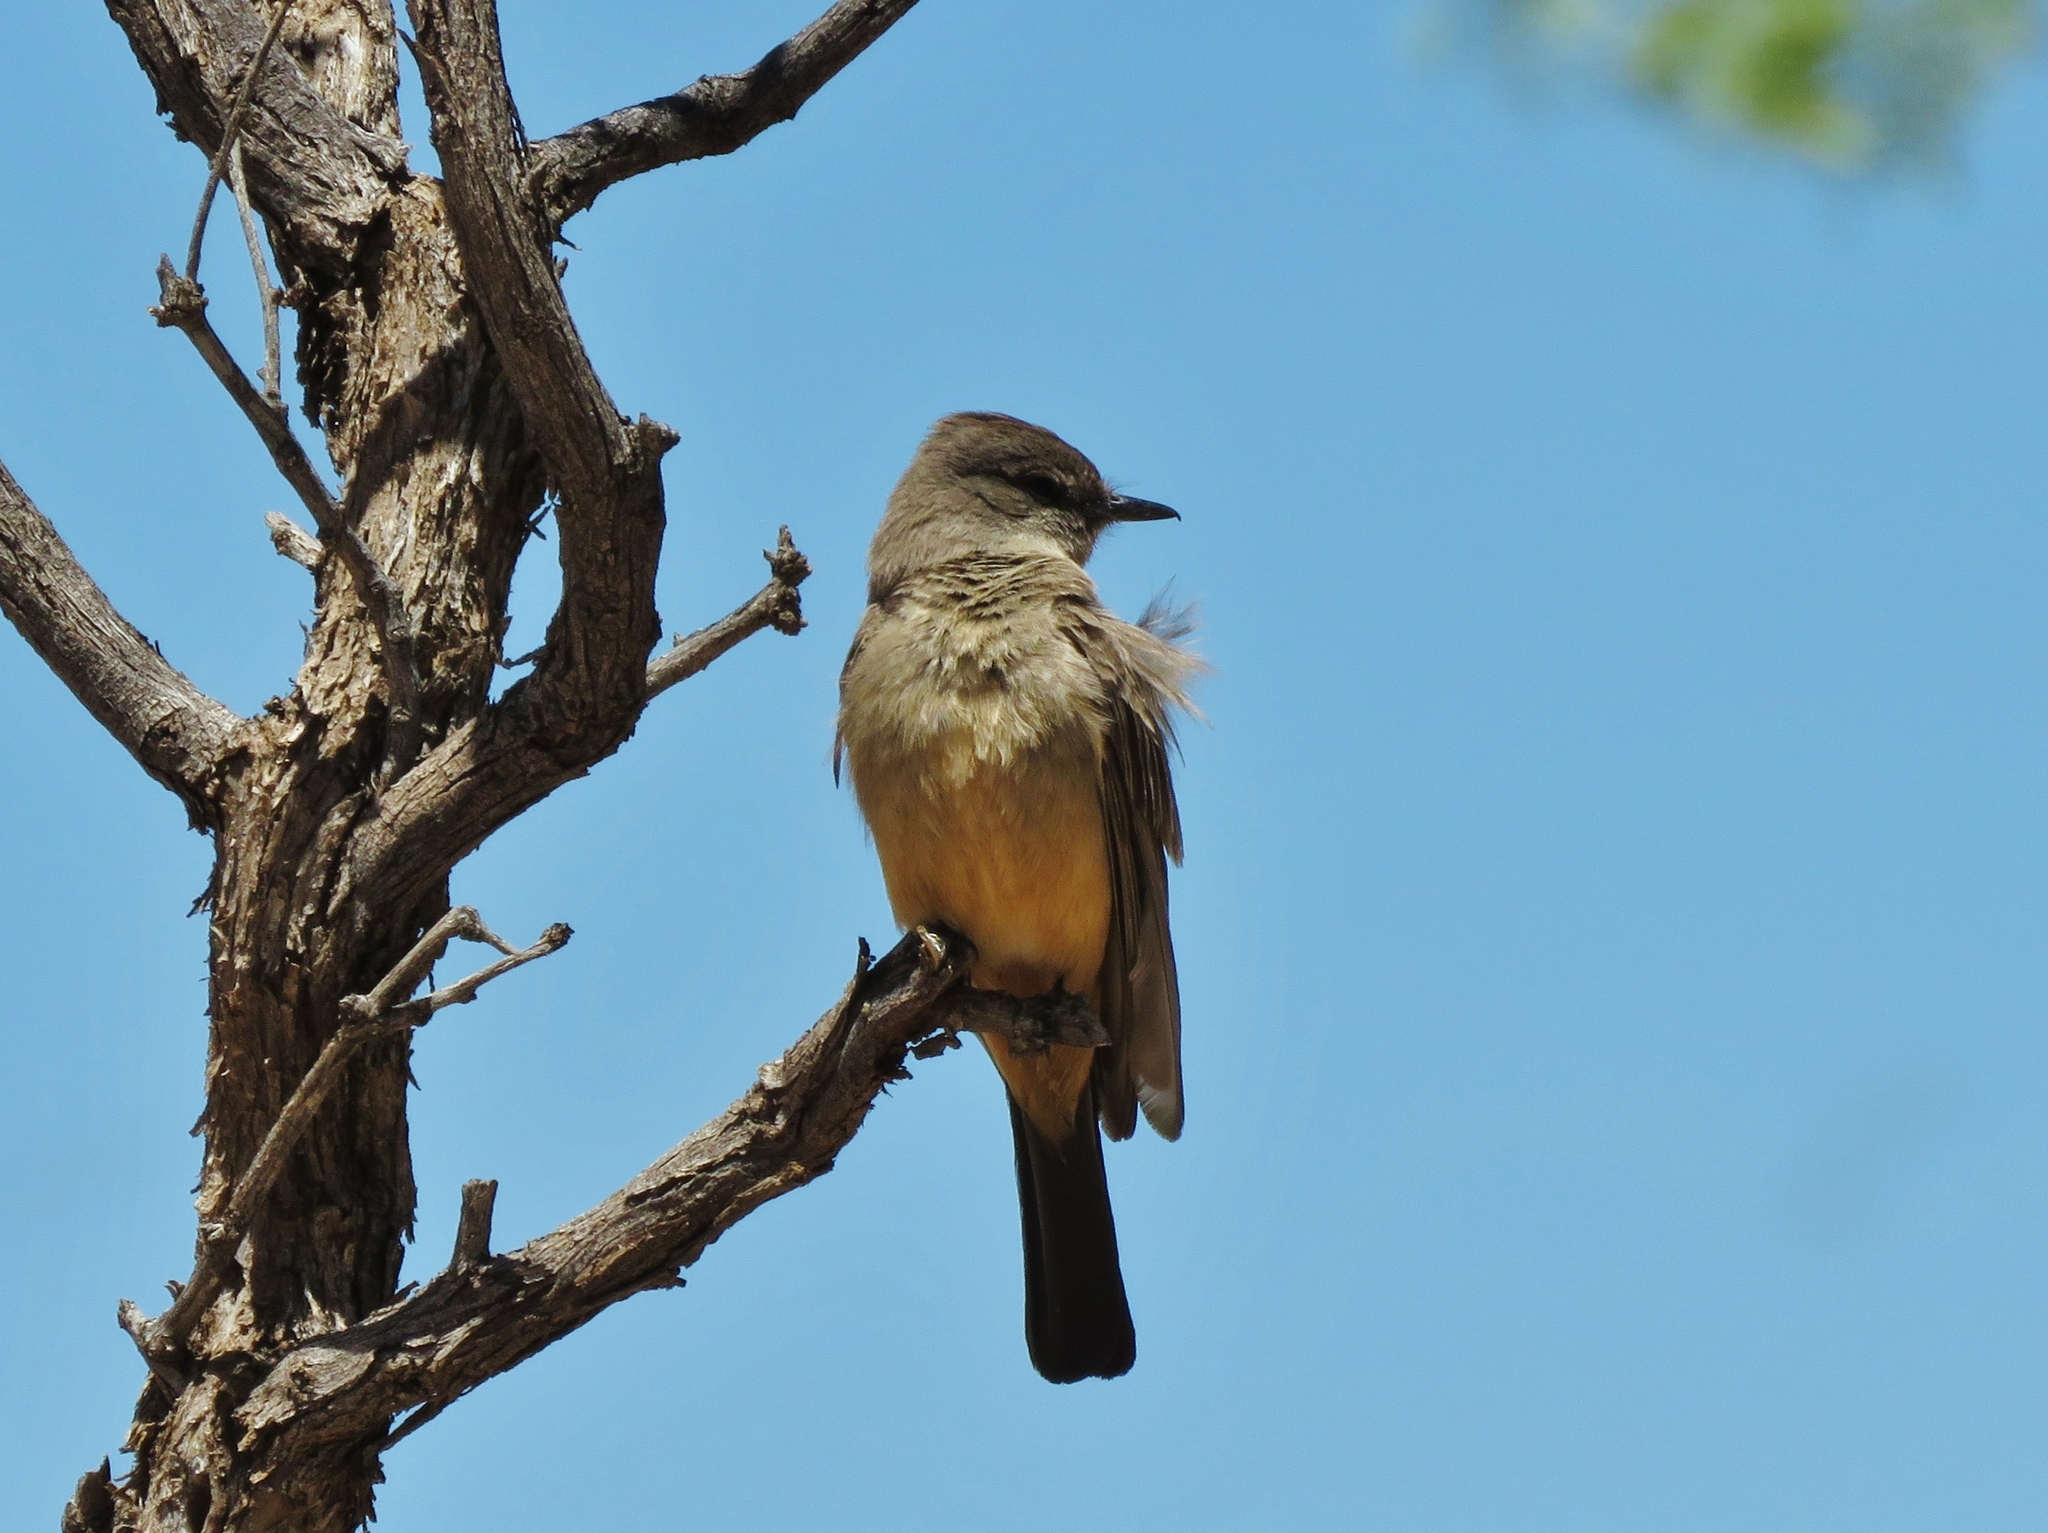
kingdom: Animalia
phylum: Chordata
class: Aves
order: Passeriformes
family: Tyrannidae
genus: Sayornis
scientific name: Sayornis saya
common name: Say's phoebe
